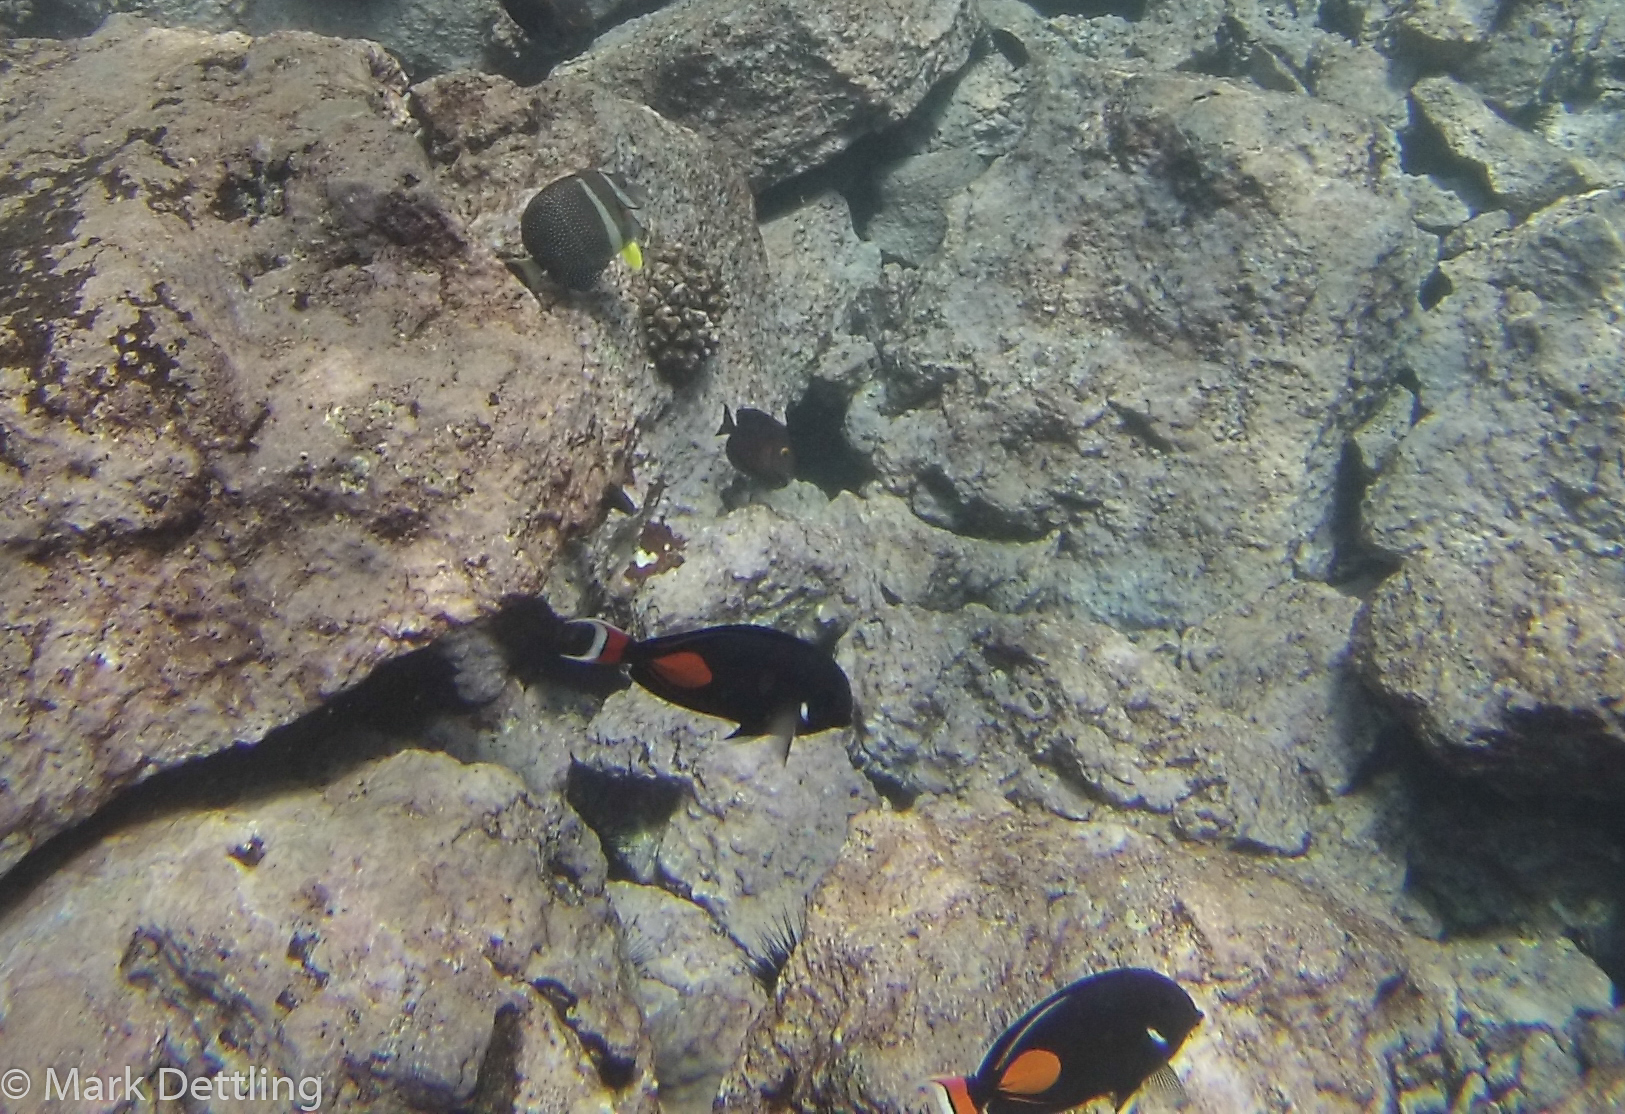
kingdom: Animalia
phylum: Chordata
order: Perciformes
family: Acanthuridae
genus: Acanthurus
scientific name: Acanthurus achilles
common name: Achilles tang
